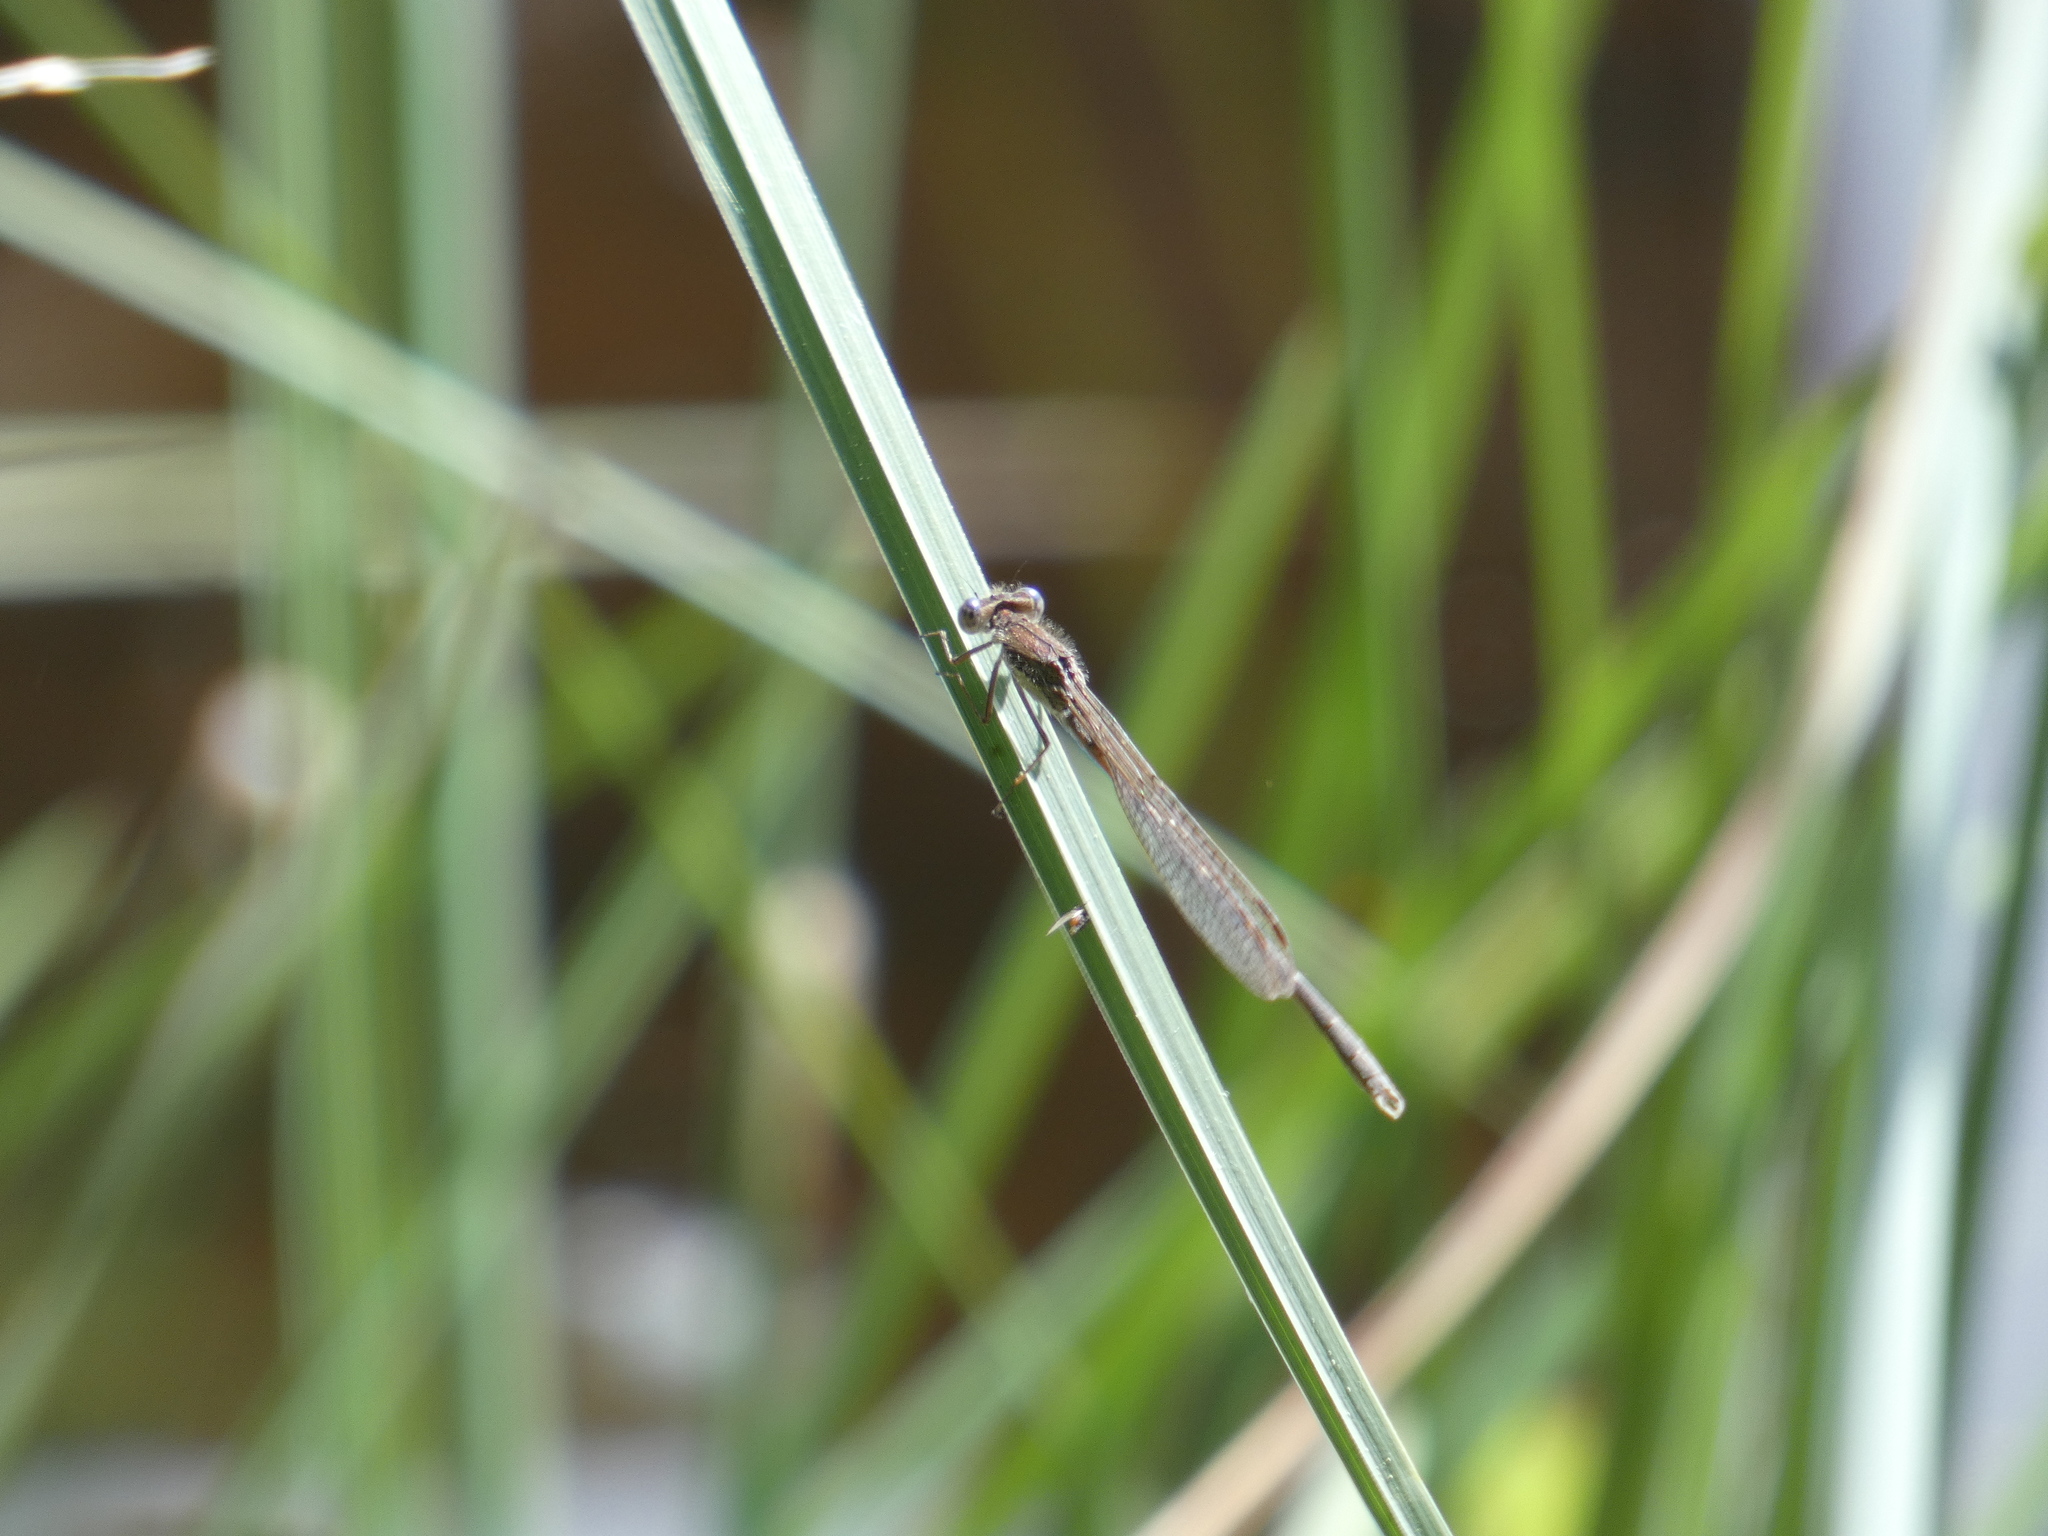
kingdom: Animalia
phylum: Arthropoda
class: Insecta
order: Odonata
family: Lestidae
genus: Sympecma
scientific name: Sympecma fusca
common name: Common winter damsel
